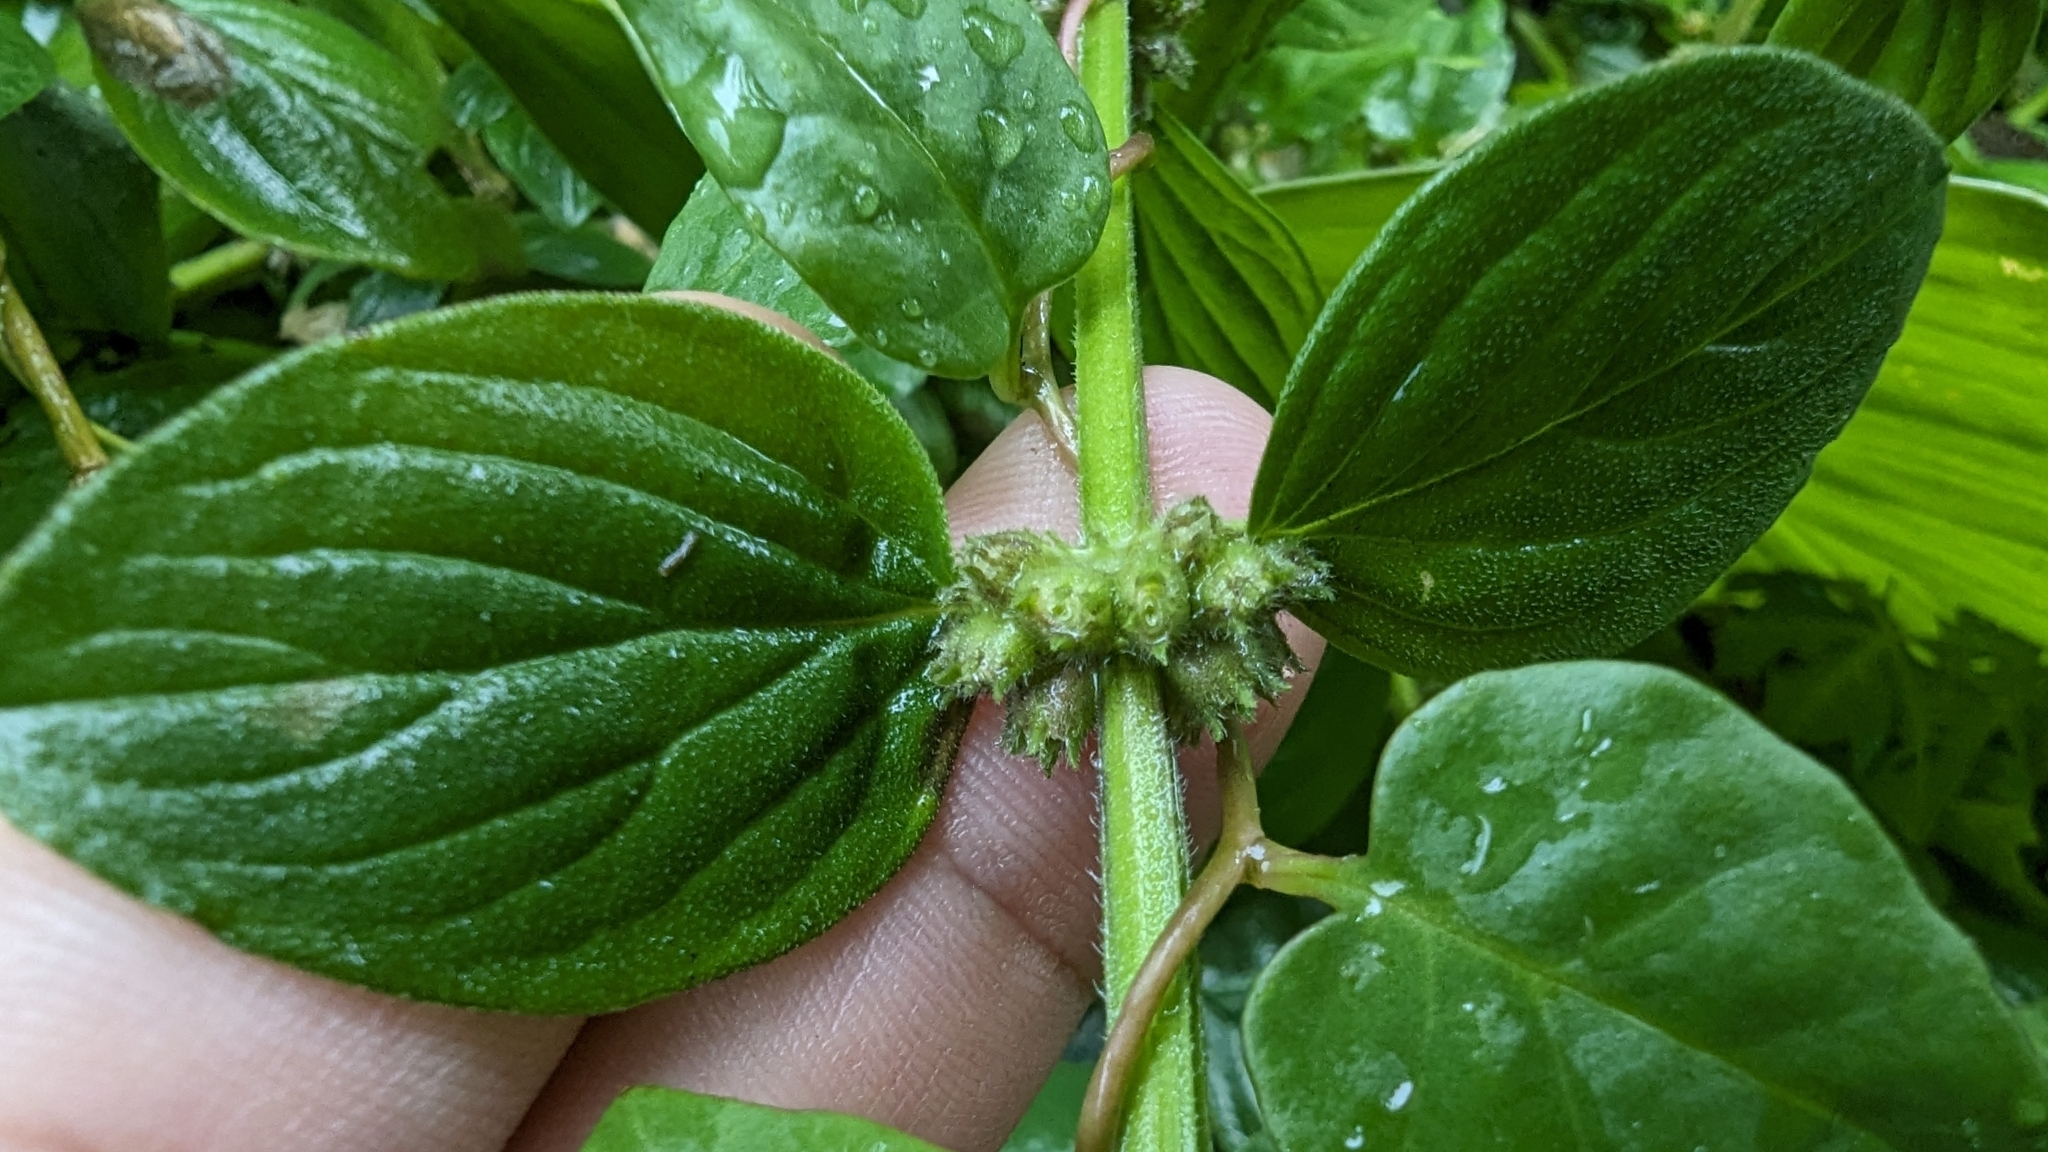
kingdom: Plantae
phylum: Tracheophyta
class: Magnoliopsida
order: Gentianales
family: Rubiaceae
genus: Spermacoce
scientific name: Spermacoce latifolia
